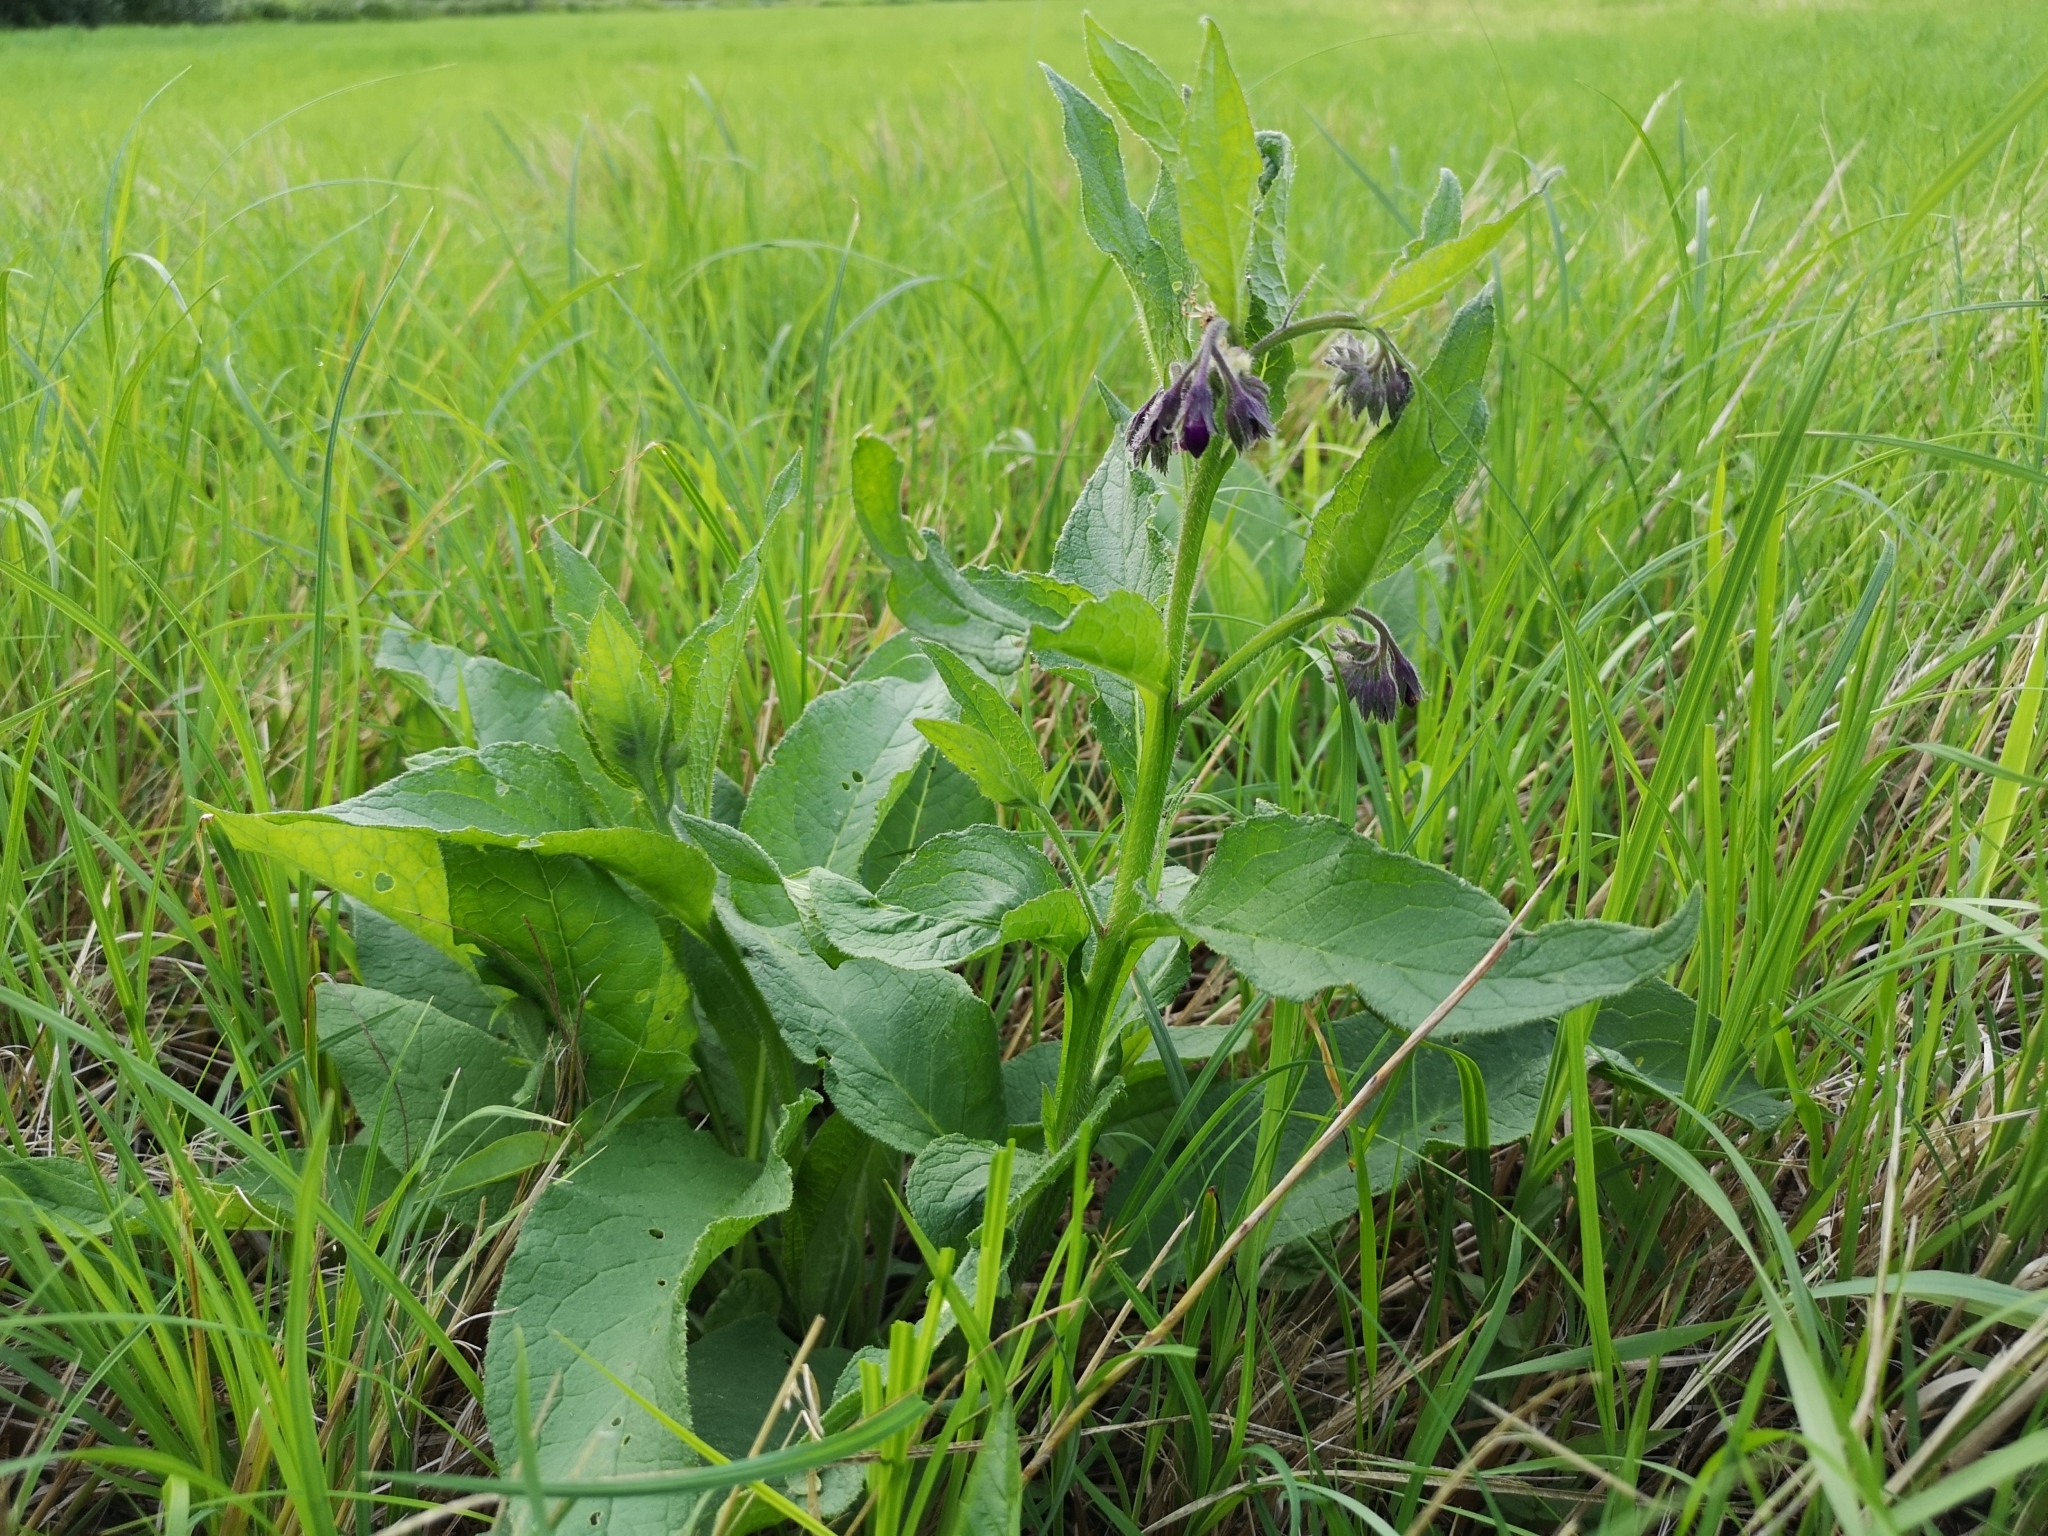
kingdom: Plantae
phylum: Tracheophyta
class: Magnoliopsida
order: Boraginales
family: Boraginaceae
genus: Symphytum
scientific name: Symphytum officinale
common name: Common comfrey
